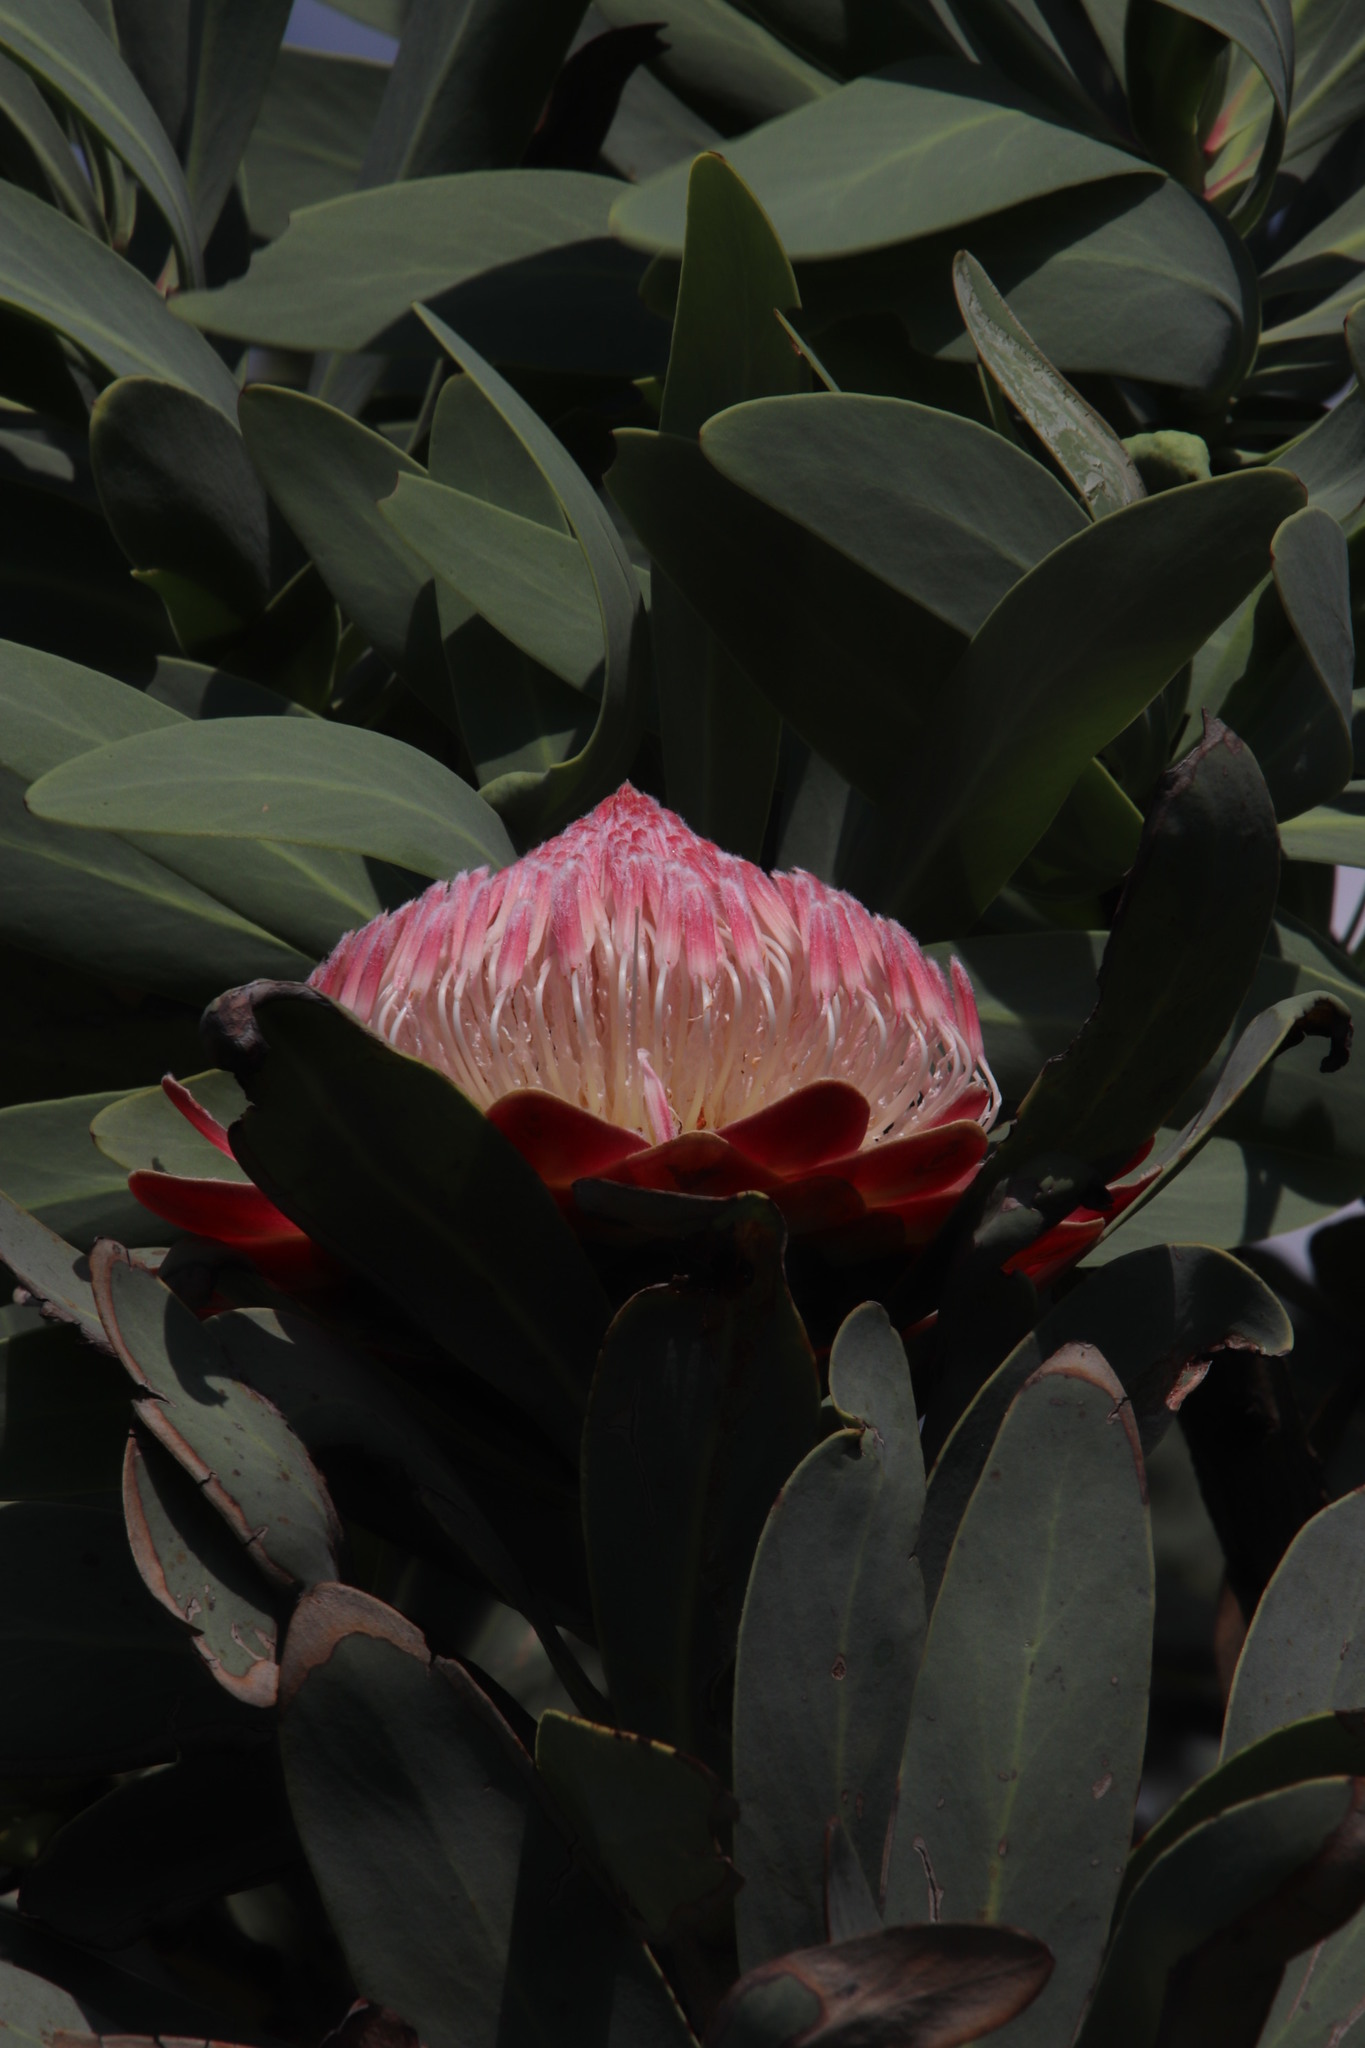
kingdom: Plantae
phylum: Tracheophyta
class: Magnoliopsida
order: Proteales
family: Proteaceae
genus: Protea
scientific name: Protea caffra
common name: Common sugarbush
